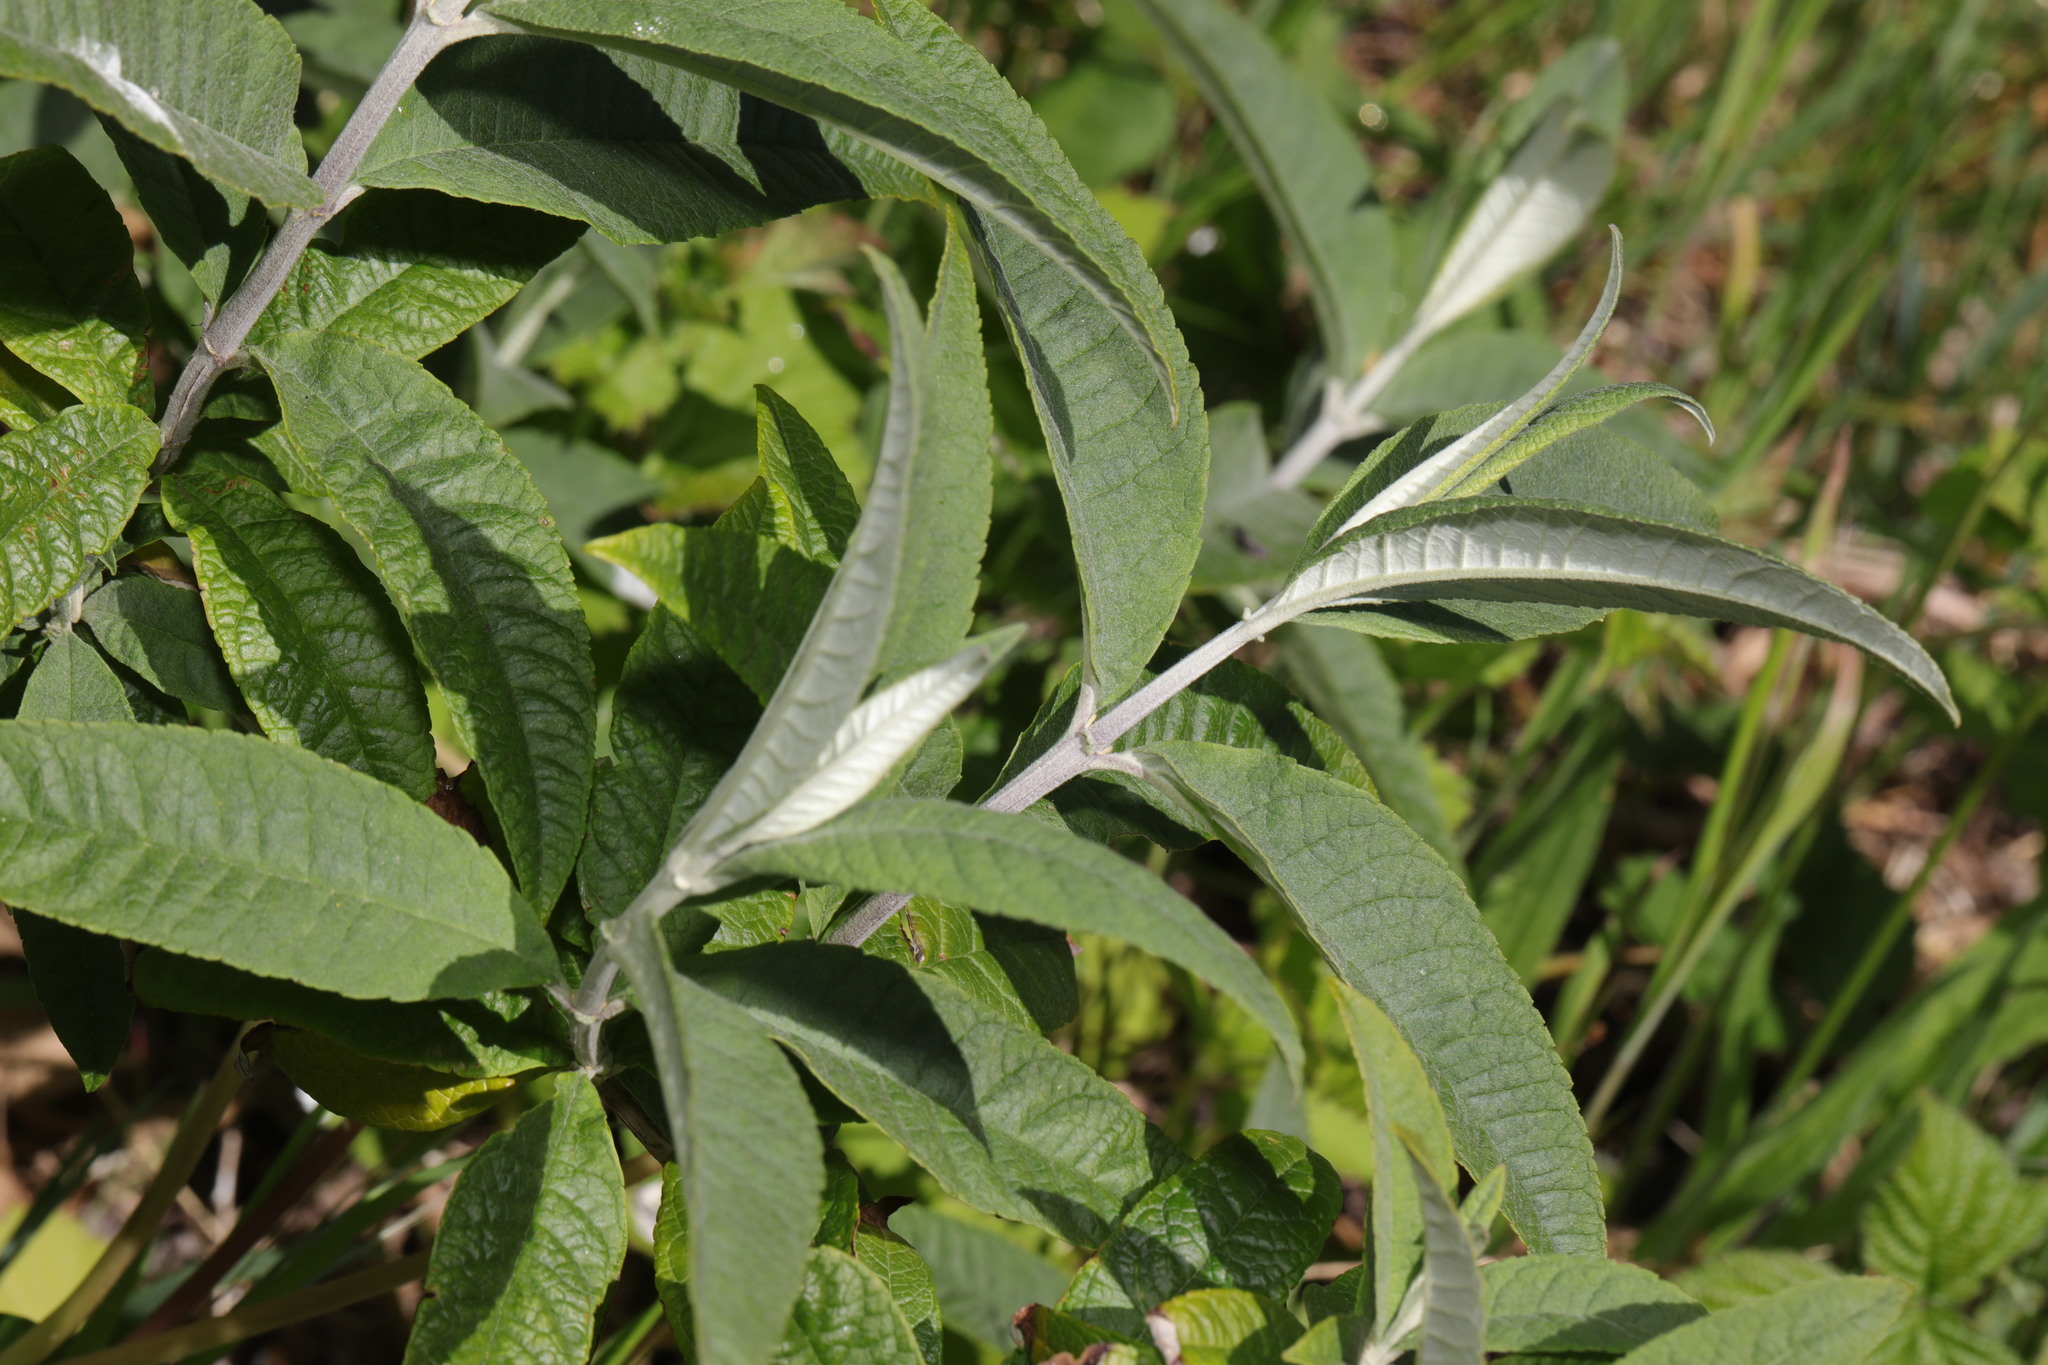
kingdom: Plantae
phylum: Tracheophyta
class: Magnoliopsida
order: Lamiales
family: Scrophulariaceae
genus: Buddleja
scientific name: Buddleja davidii
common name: Butterfly-bush
